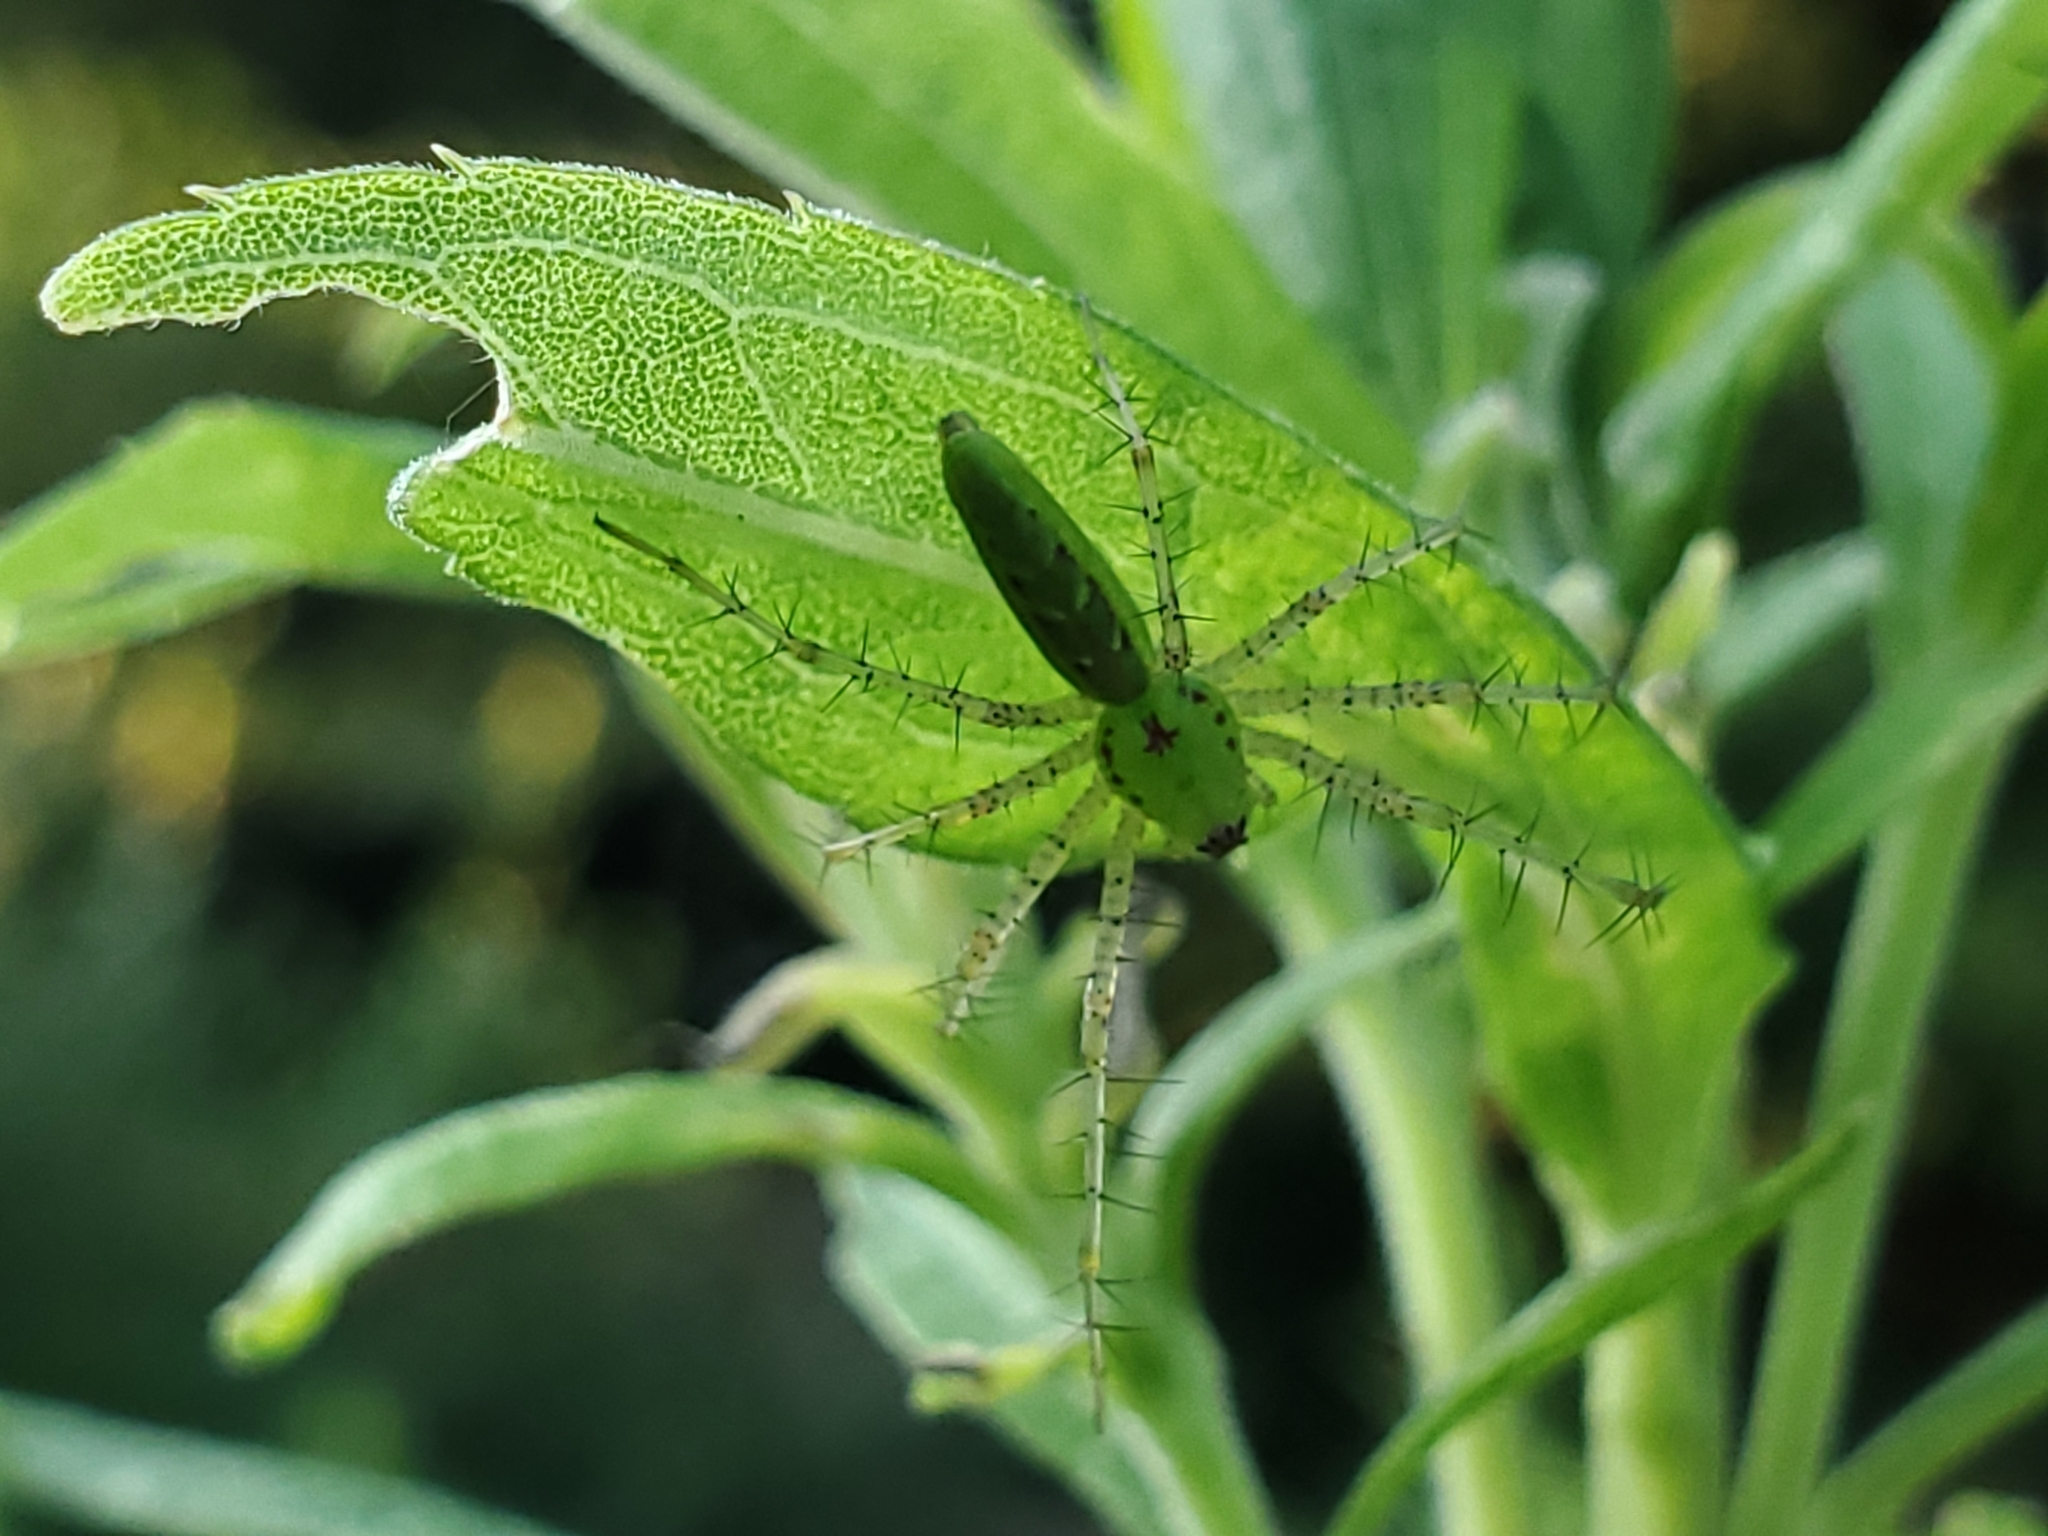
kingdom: Animalia
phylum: Arthropoda
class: Arachnida
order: Araneae
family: Oxyopidae
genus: Peucetia
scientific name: Peucetia viridans
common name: Lynx spiders
